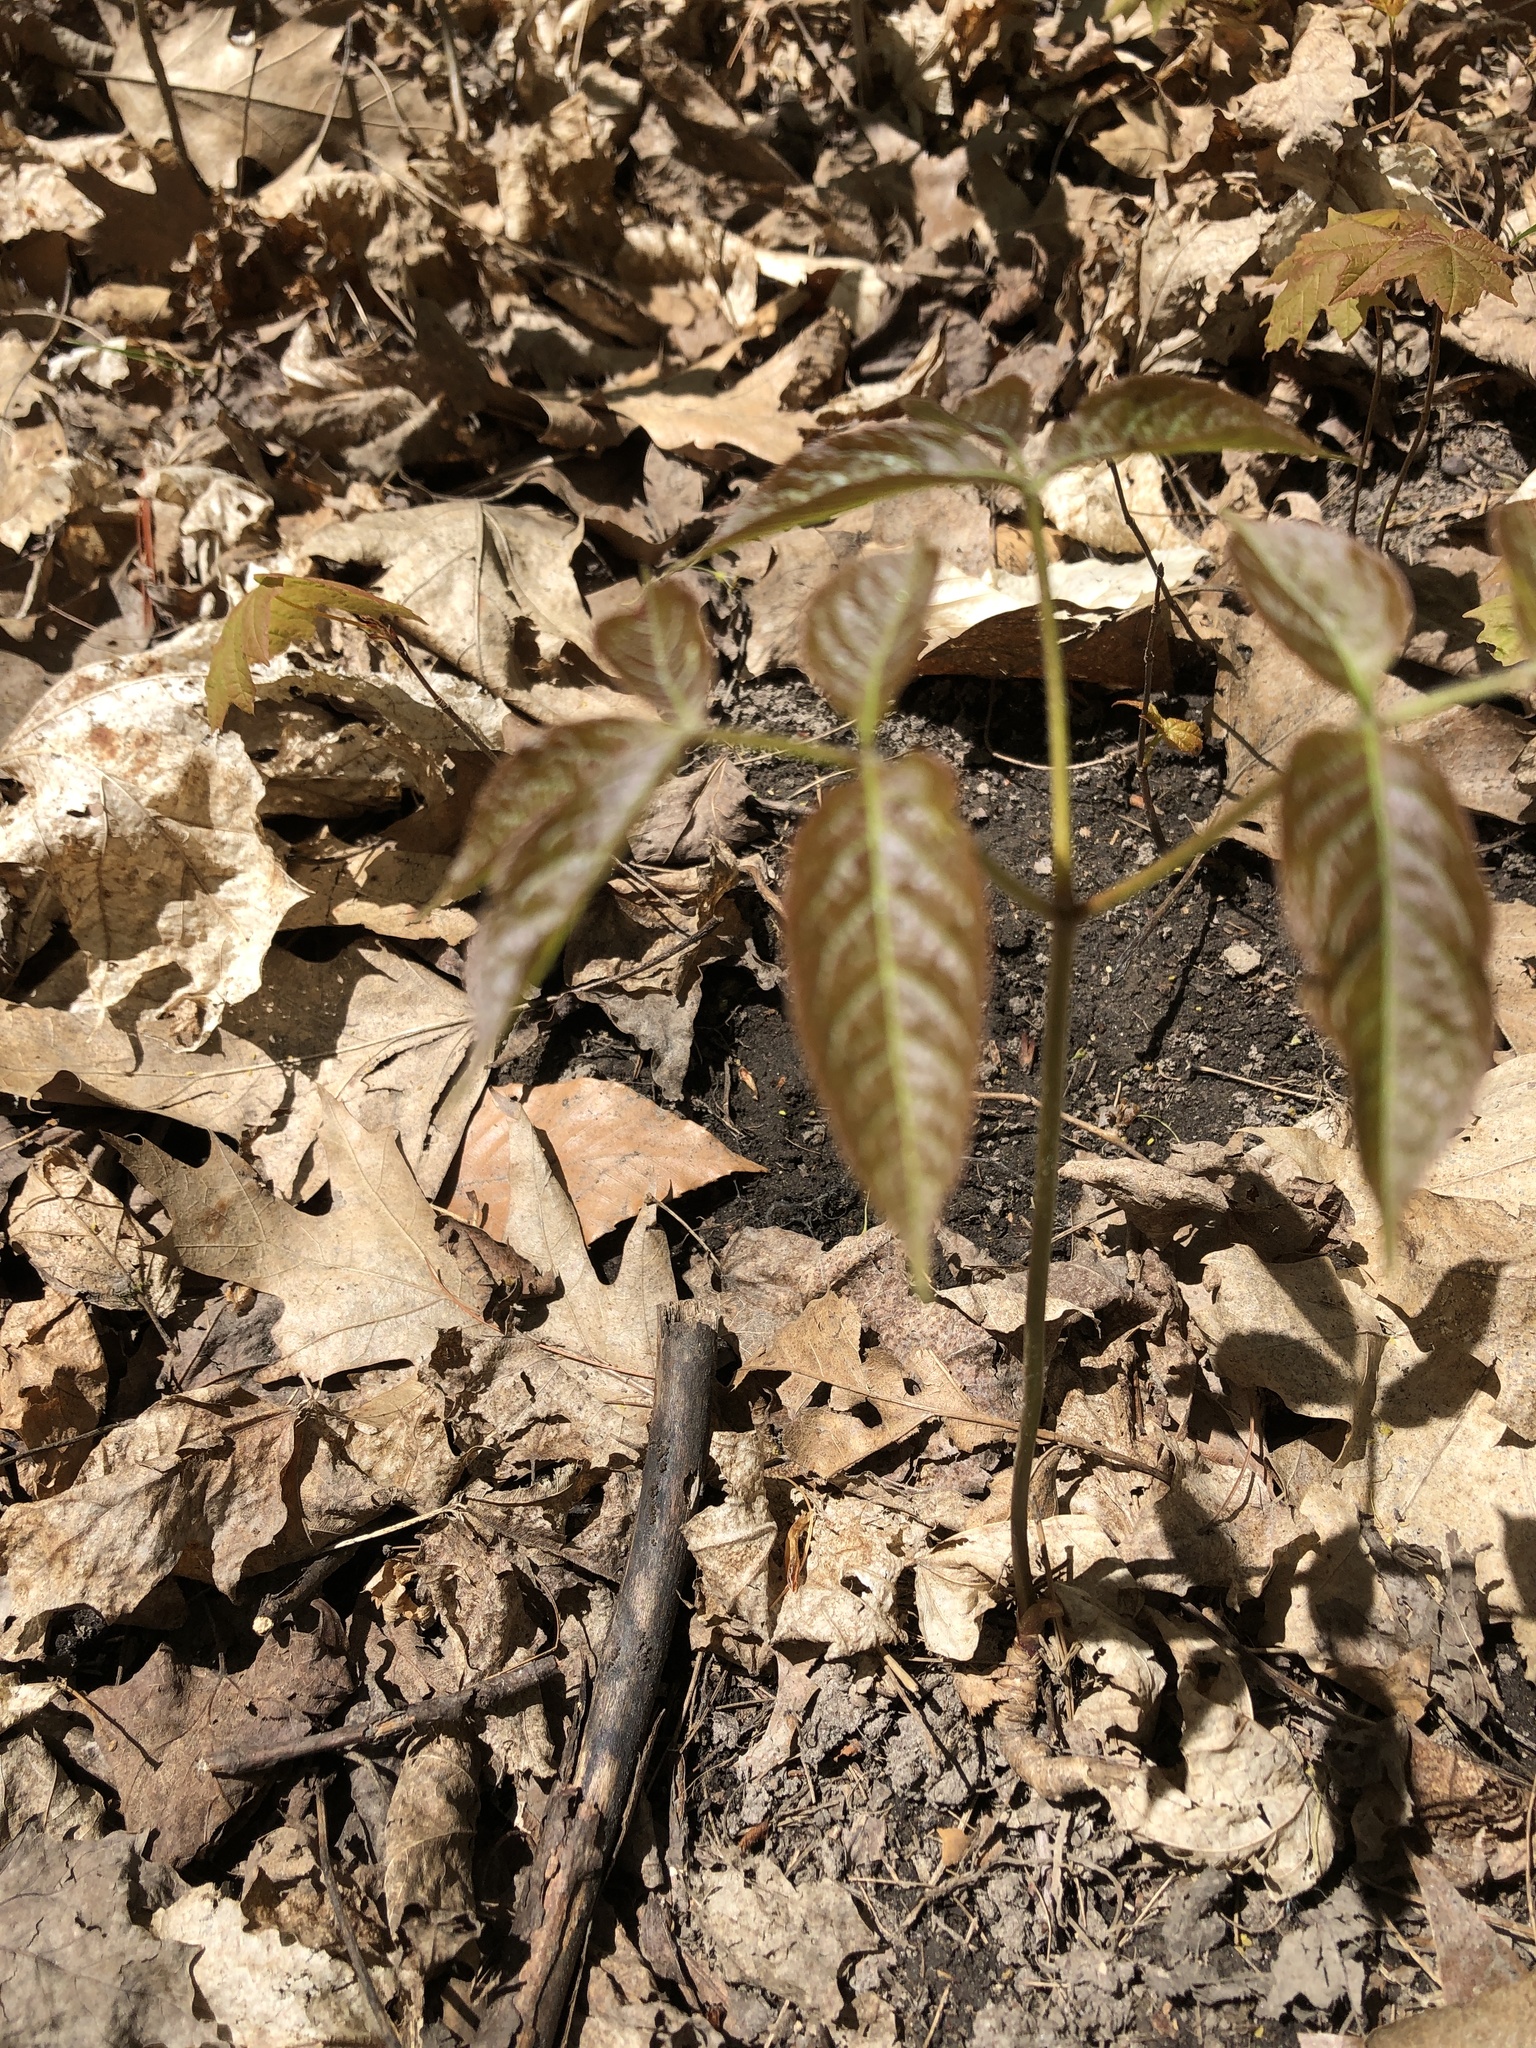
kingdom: Plantae
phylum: Tracheophyta
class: Magnoliopsida
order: Apiales
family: Araliaceae
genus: Aralia
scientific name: Aralia nudicaulis
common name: Wild sarsaparilla
